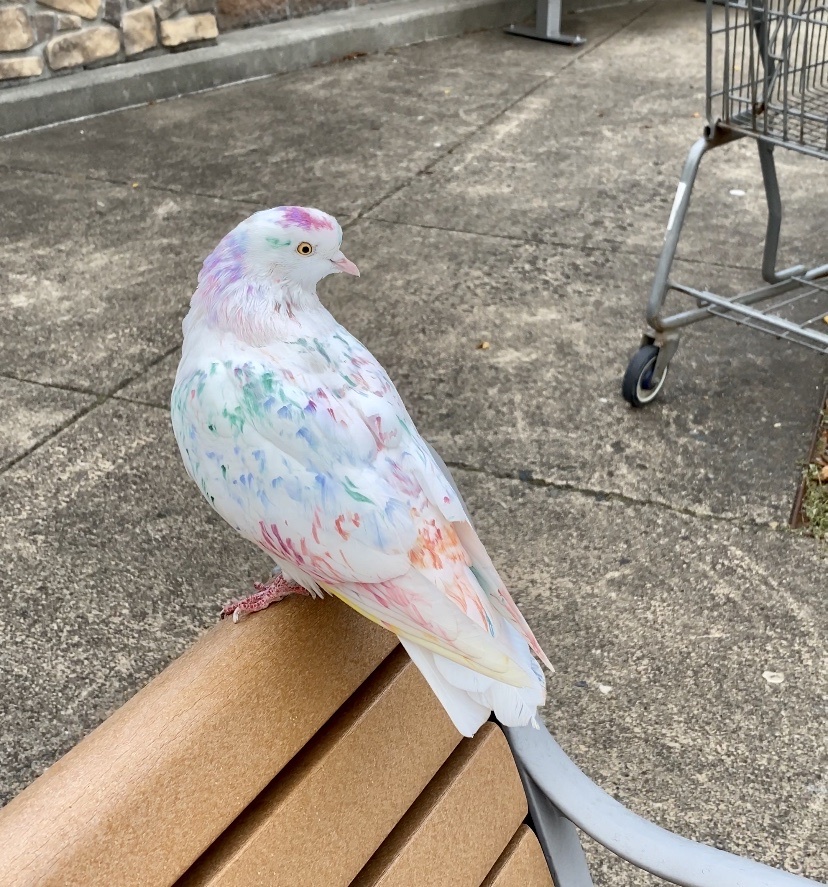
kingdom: Animalia
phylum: Chordata
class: Aves
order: Columbiformes
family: Columbidae
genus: Columba
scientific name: Columba livia
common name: Rock pigeon
